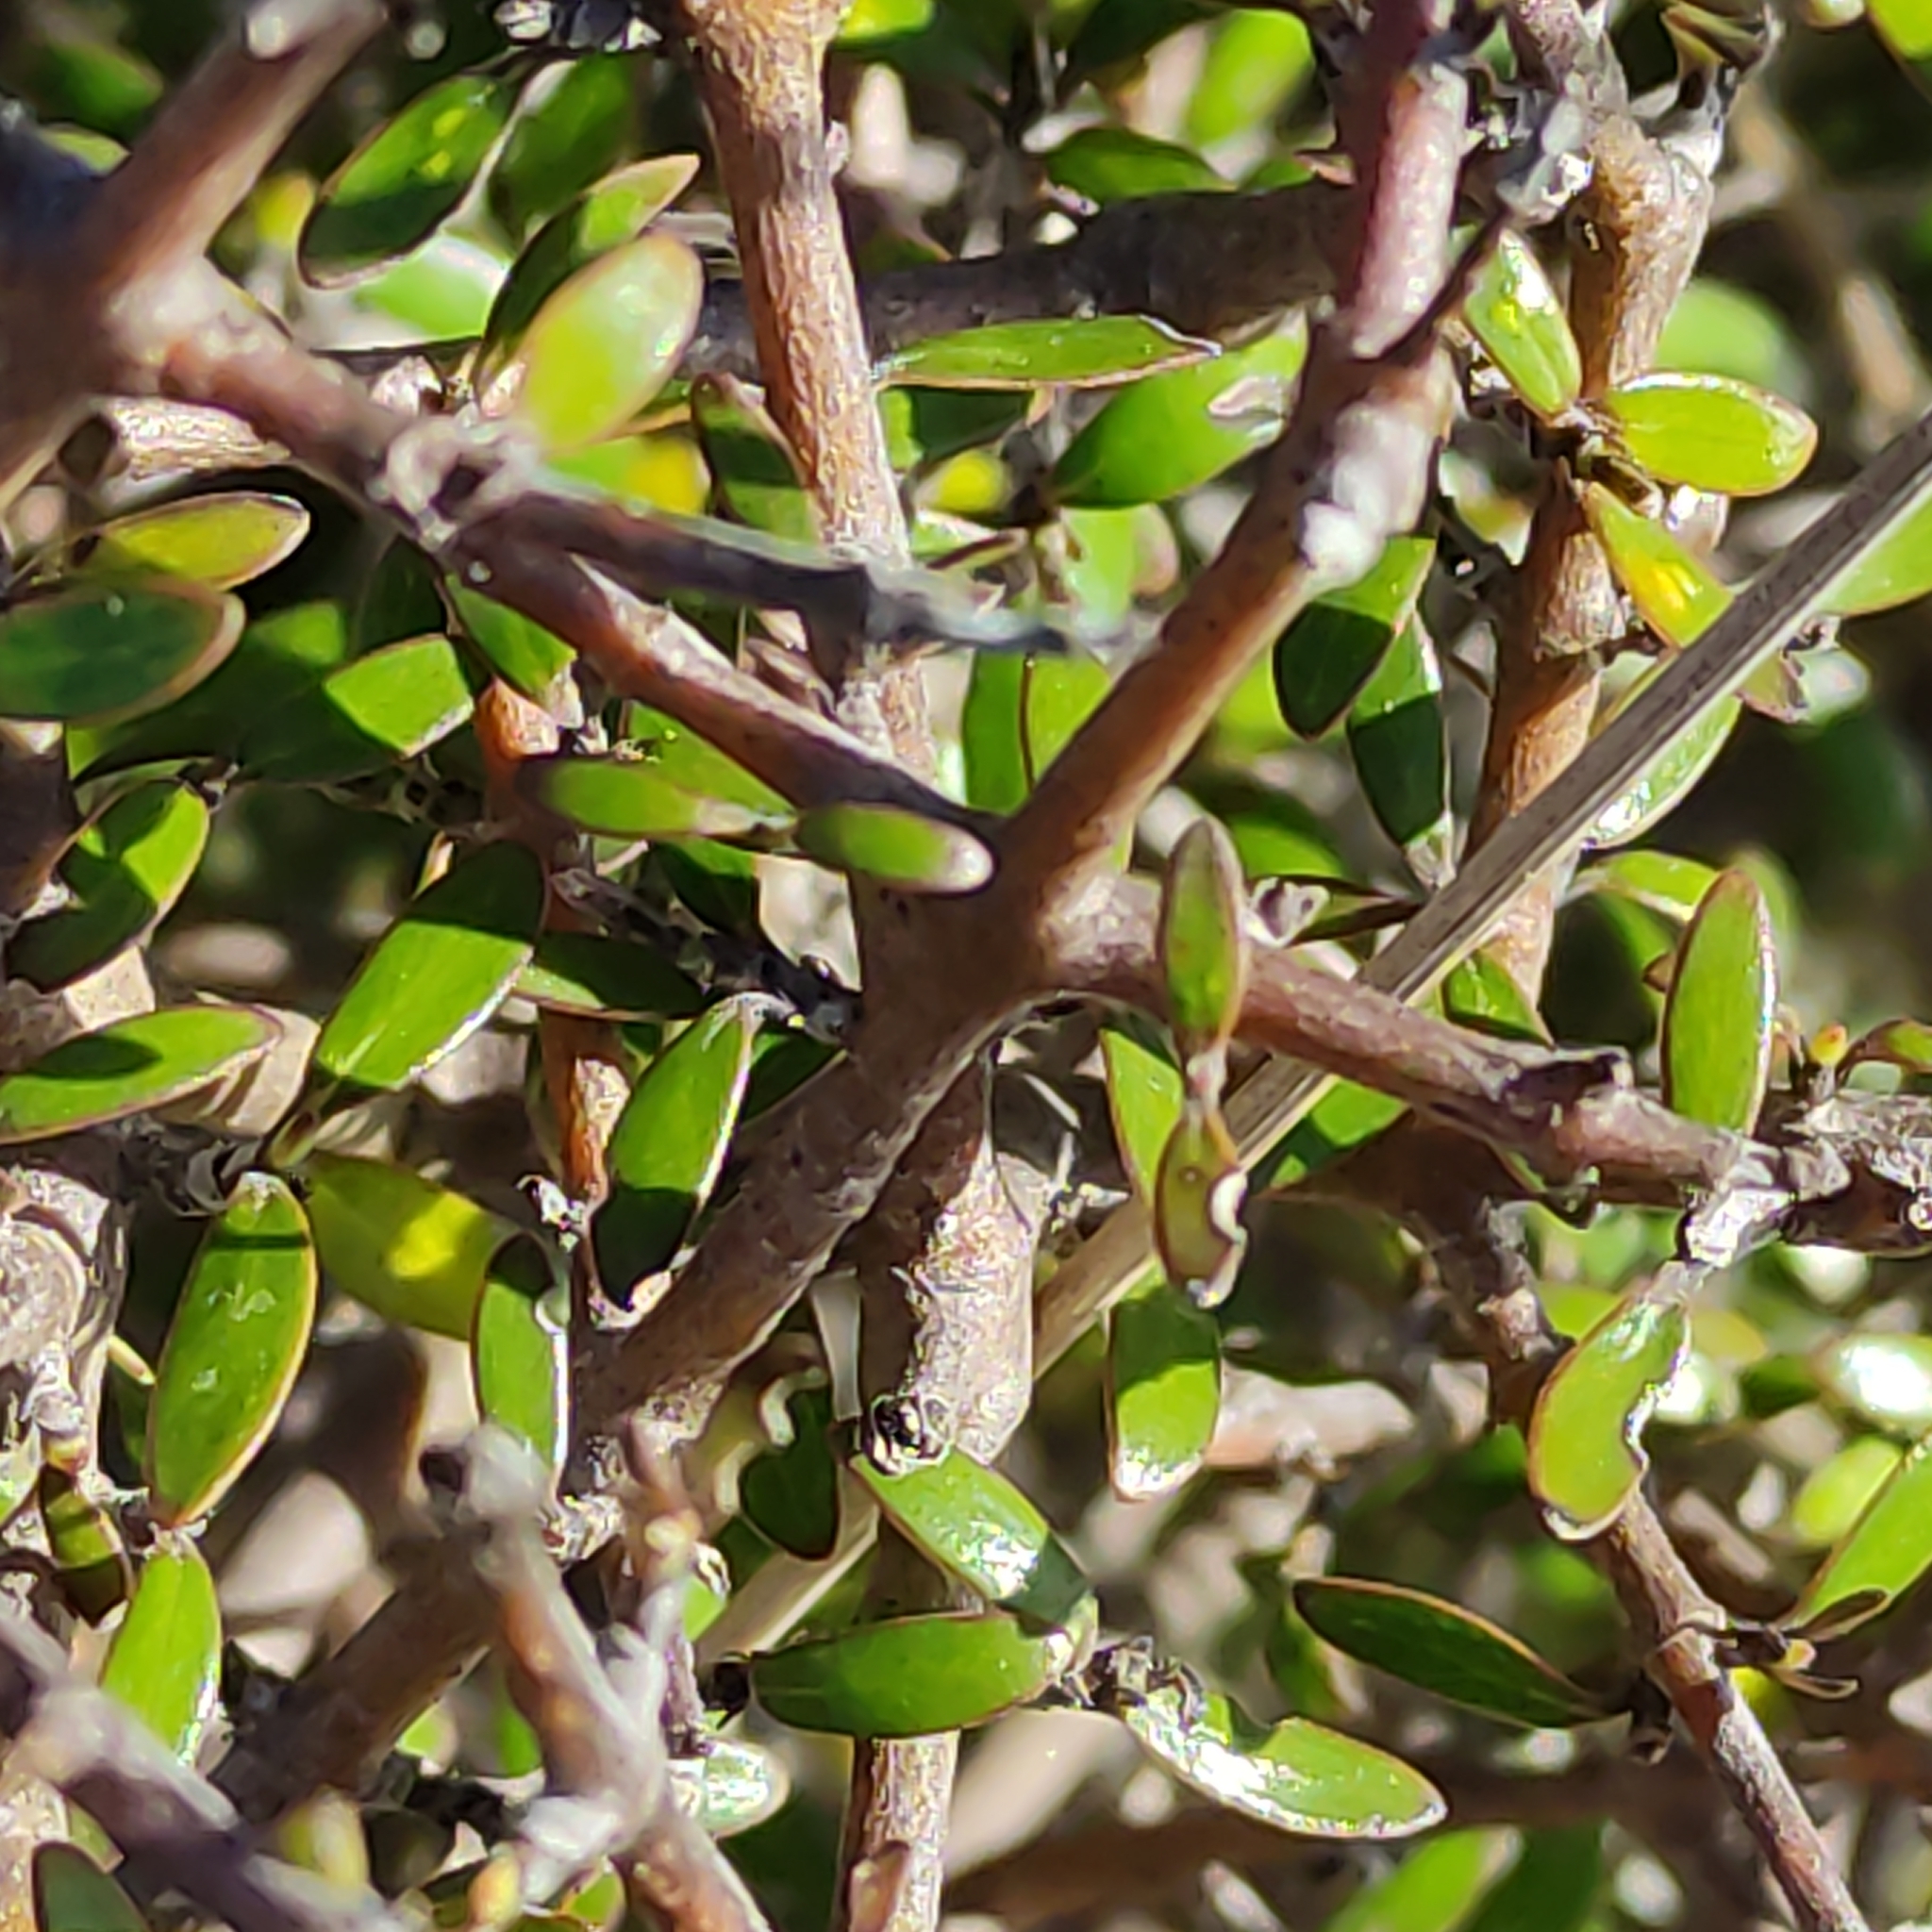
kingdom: Plantae
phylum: Tracheophyta
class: Magnoliopsida
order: Gentianales
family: Rubiaceae
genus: Coprosma
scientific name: Coprosma propinqua
